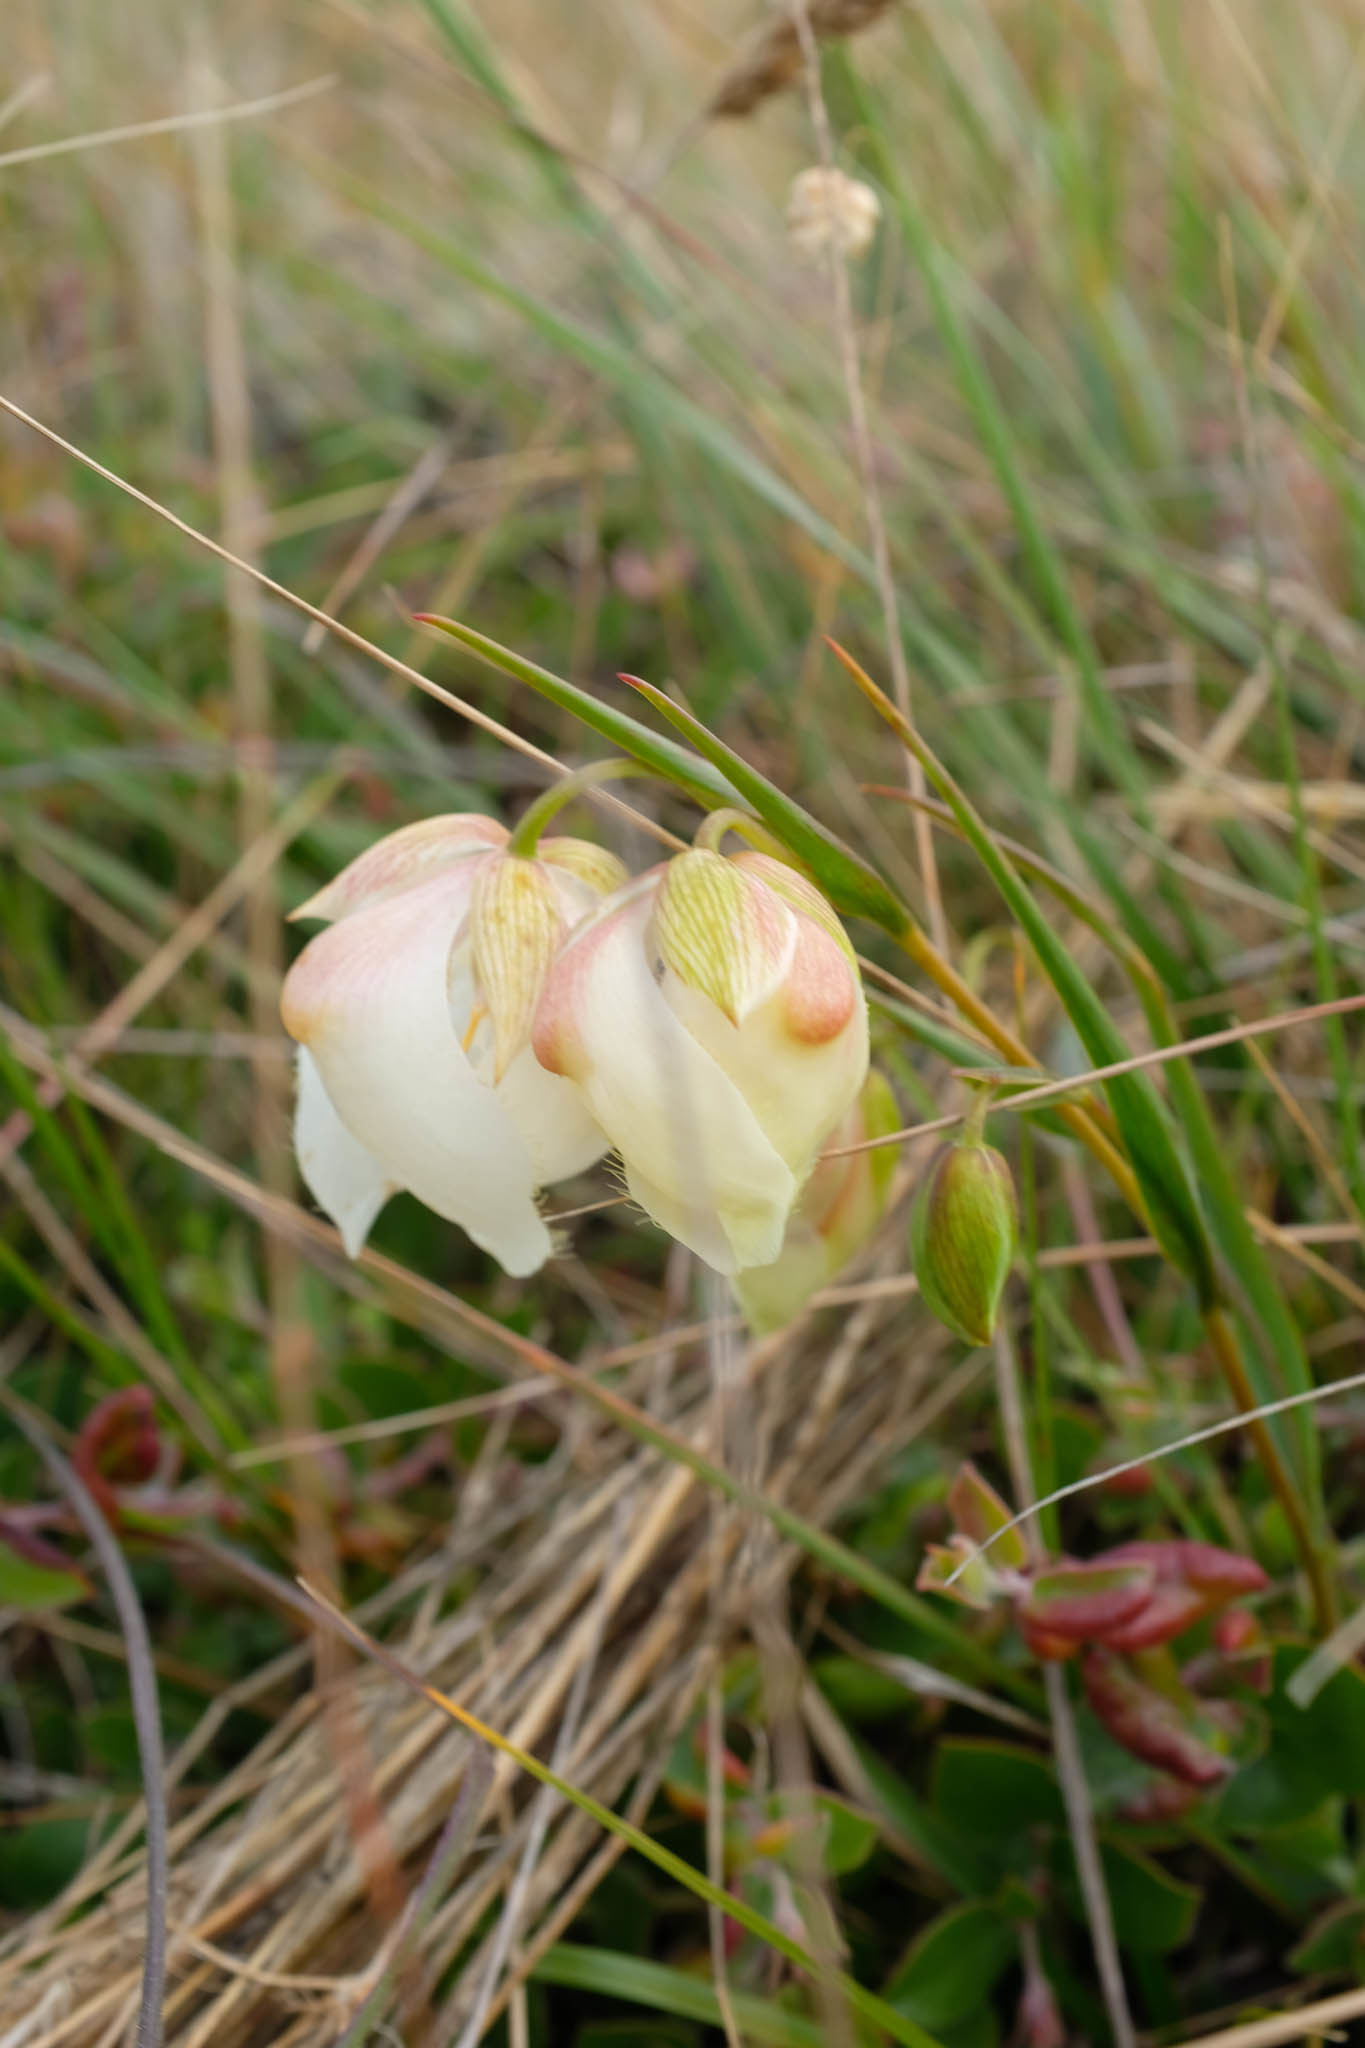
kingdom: Plantae
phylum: Tracheophyta
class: Liliopsida
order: Liliales
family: Liliaceae
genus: Calochortus
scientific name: Calochortus albus
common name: Fairy-lantern
